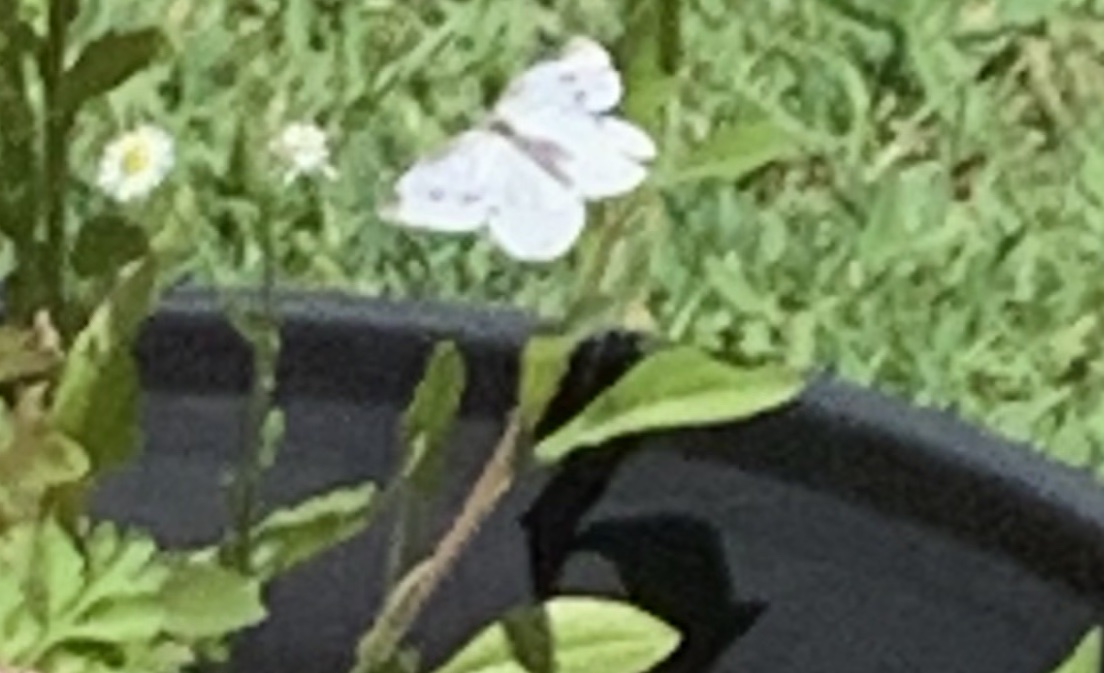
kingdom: Animalia
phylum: Arthropoda
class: Insecta
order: Lepidoptera
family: Pieridae
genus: Pieris
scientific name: Pieris rapae
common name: Small white
